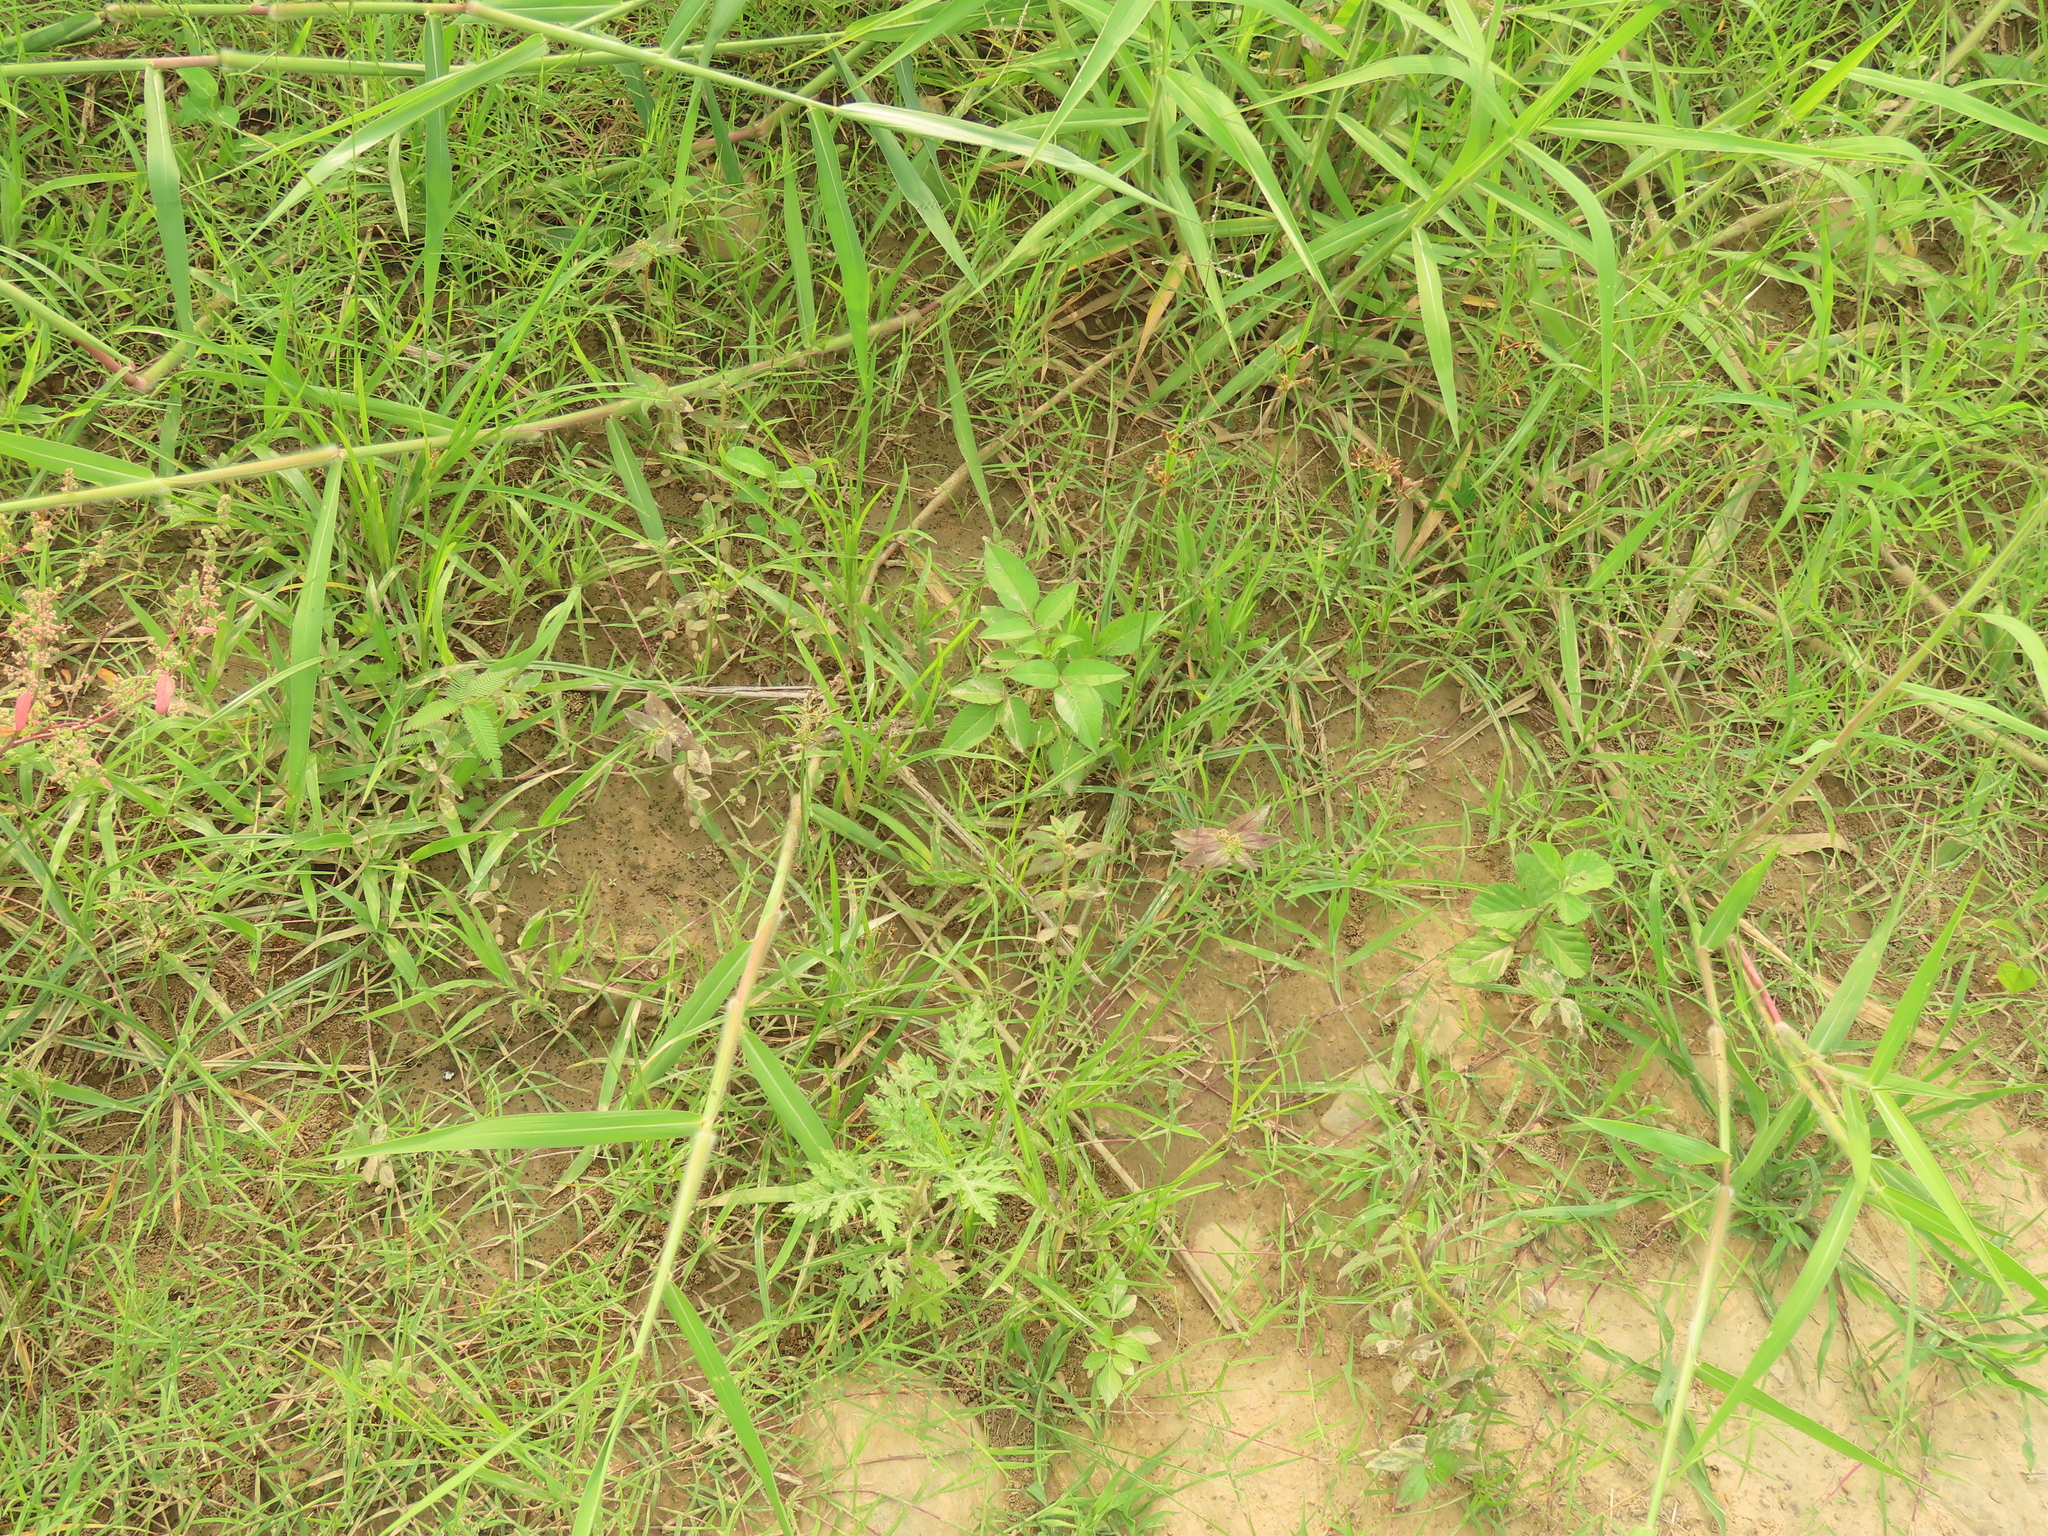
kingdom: Plantae
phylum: Tracheophyta
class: Magnoliopsida
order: Asterales
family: Asteraceae
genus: Bidens
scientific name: Bidens alba
